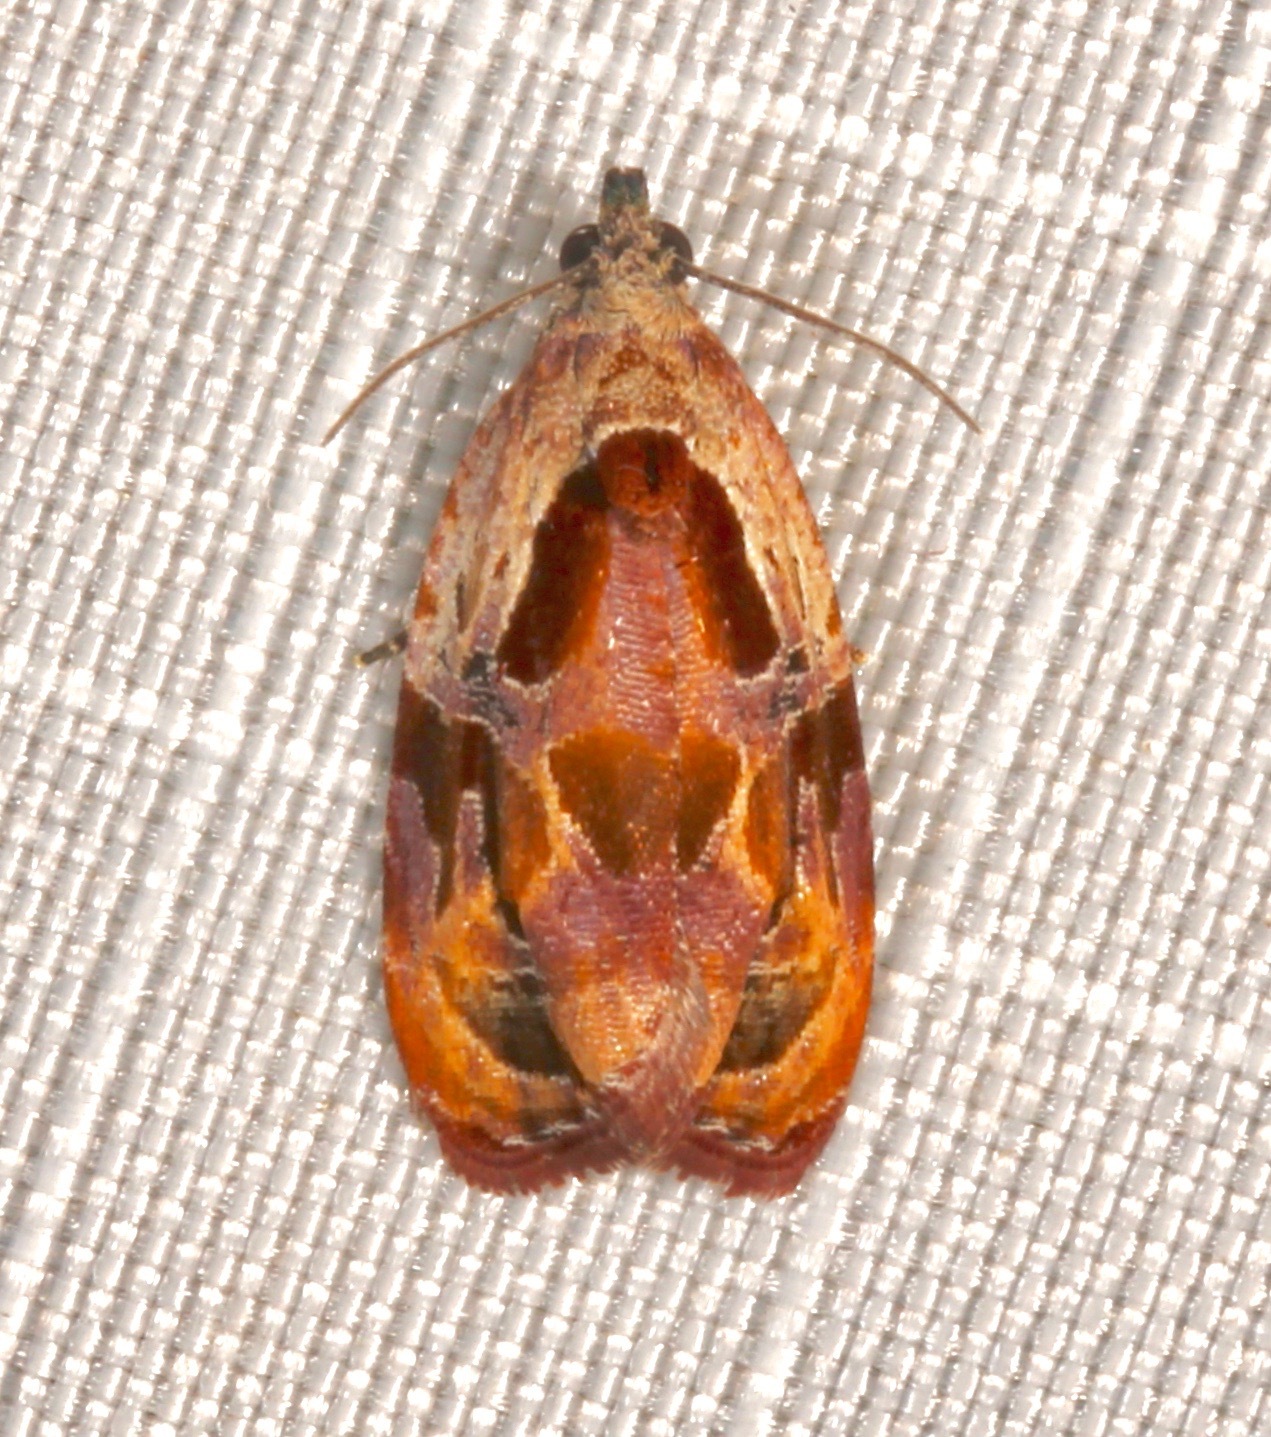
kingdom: Animalia
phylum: Arthropoda
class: Insecta
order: Lepidoptera
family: Tortricidae
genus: Zomaria
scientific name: Zomaria interruptolineana
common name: Broken-lined zomaria moth
